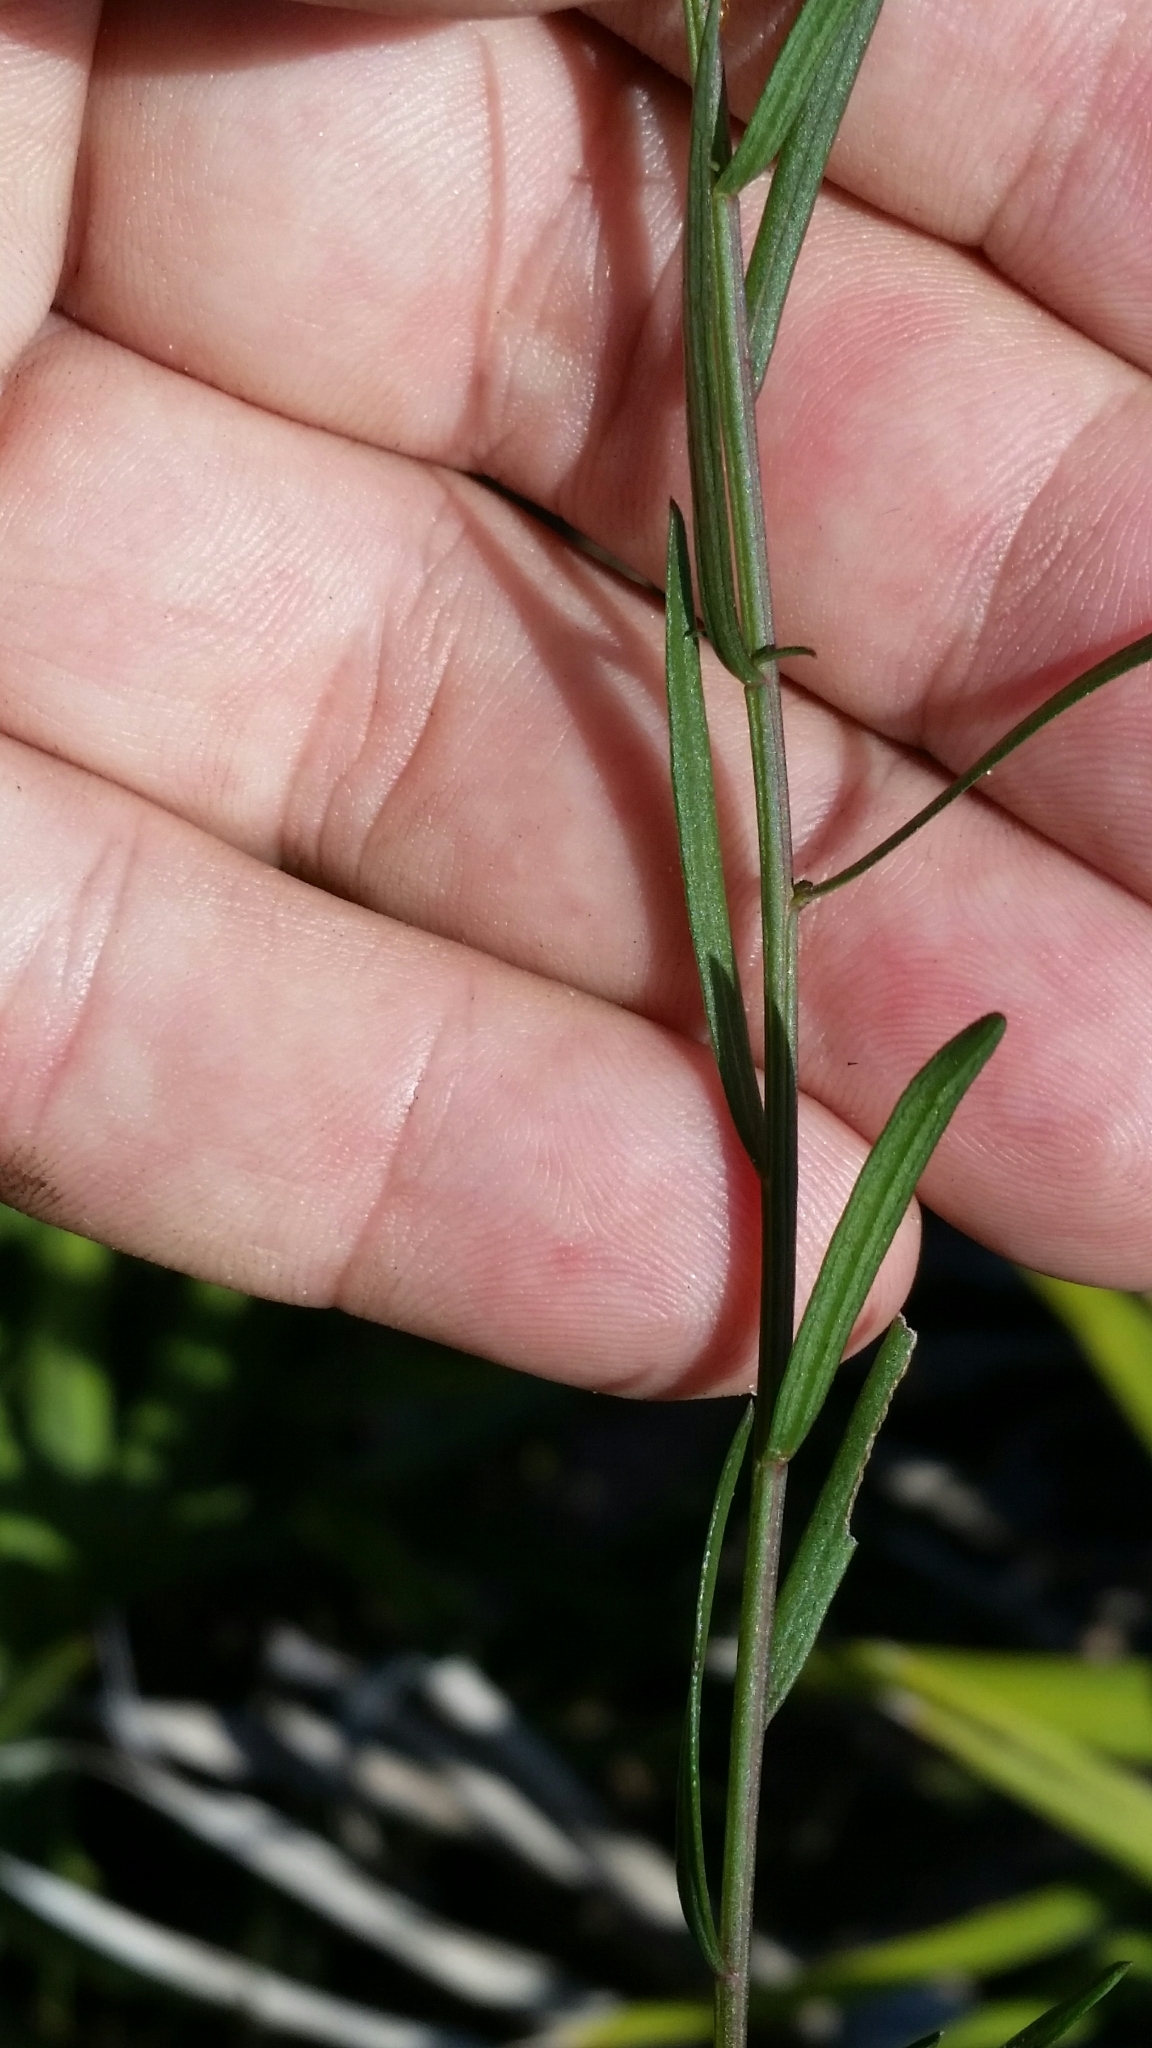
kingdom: Plantae
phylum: Tracheophyta
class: Magnoliopsida
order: Asterales
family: Asteraceae
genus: Symphyotrichum
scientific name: Symphyotrichum dumosum
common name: Bushy aster
